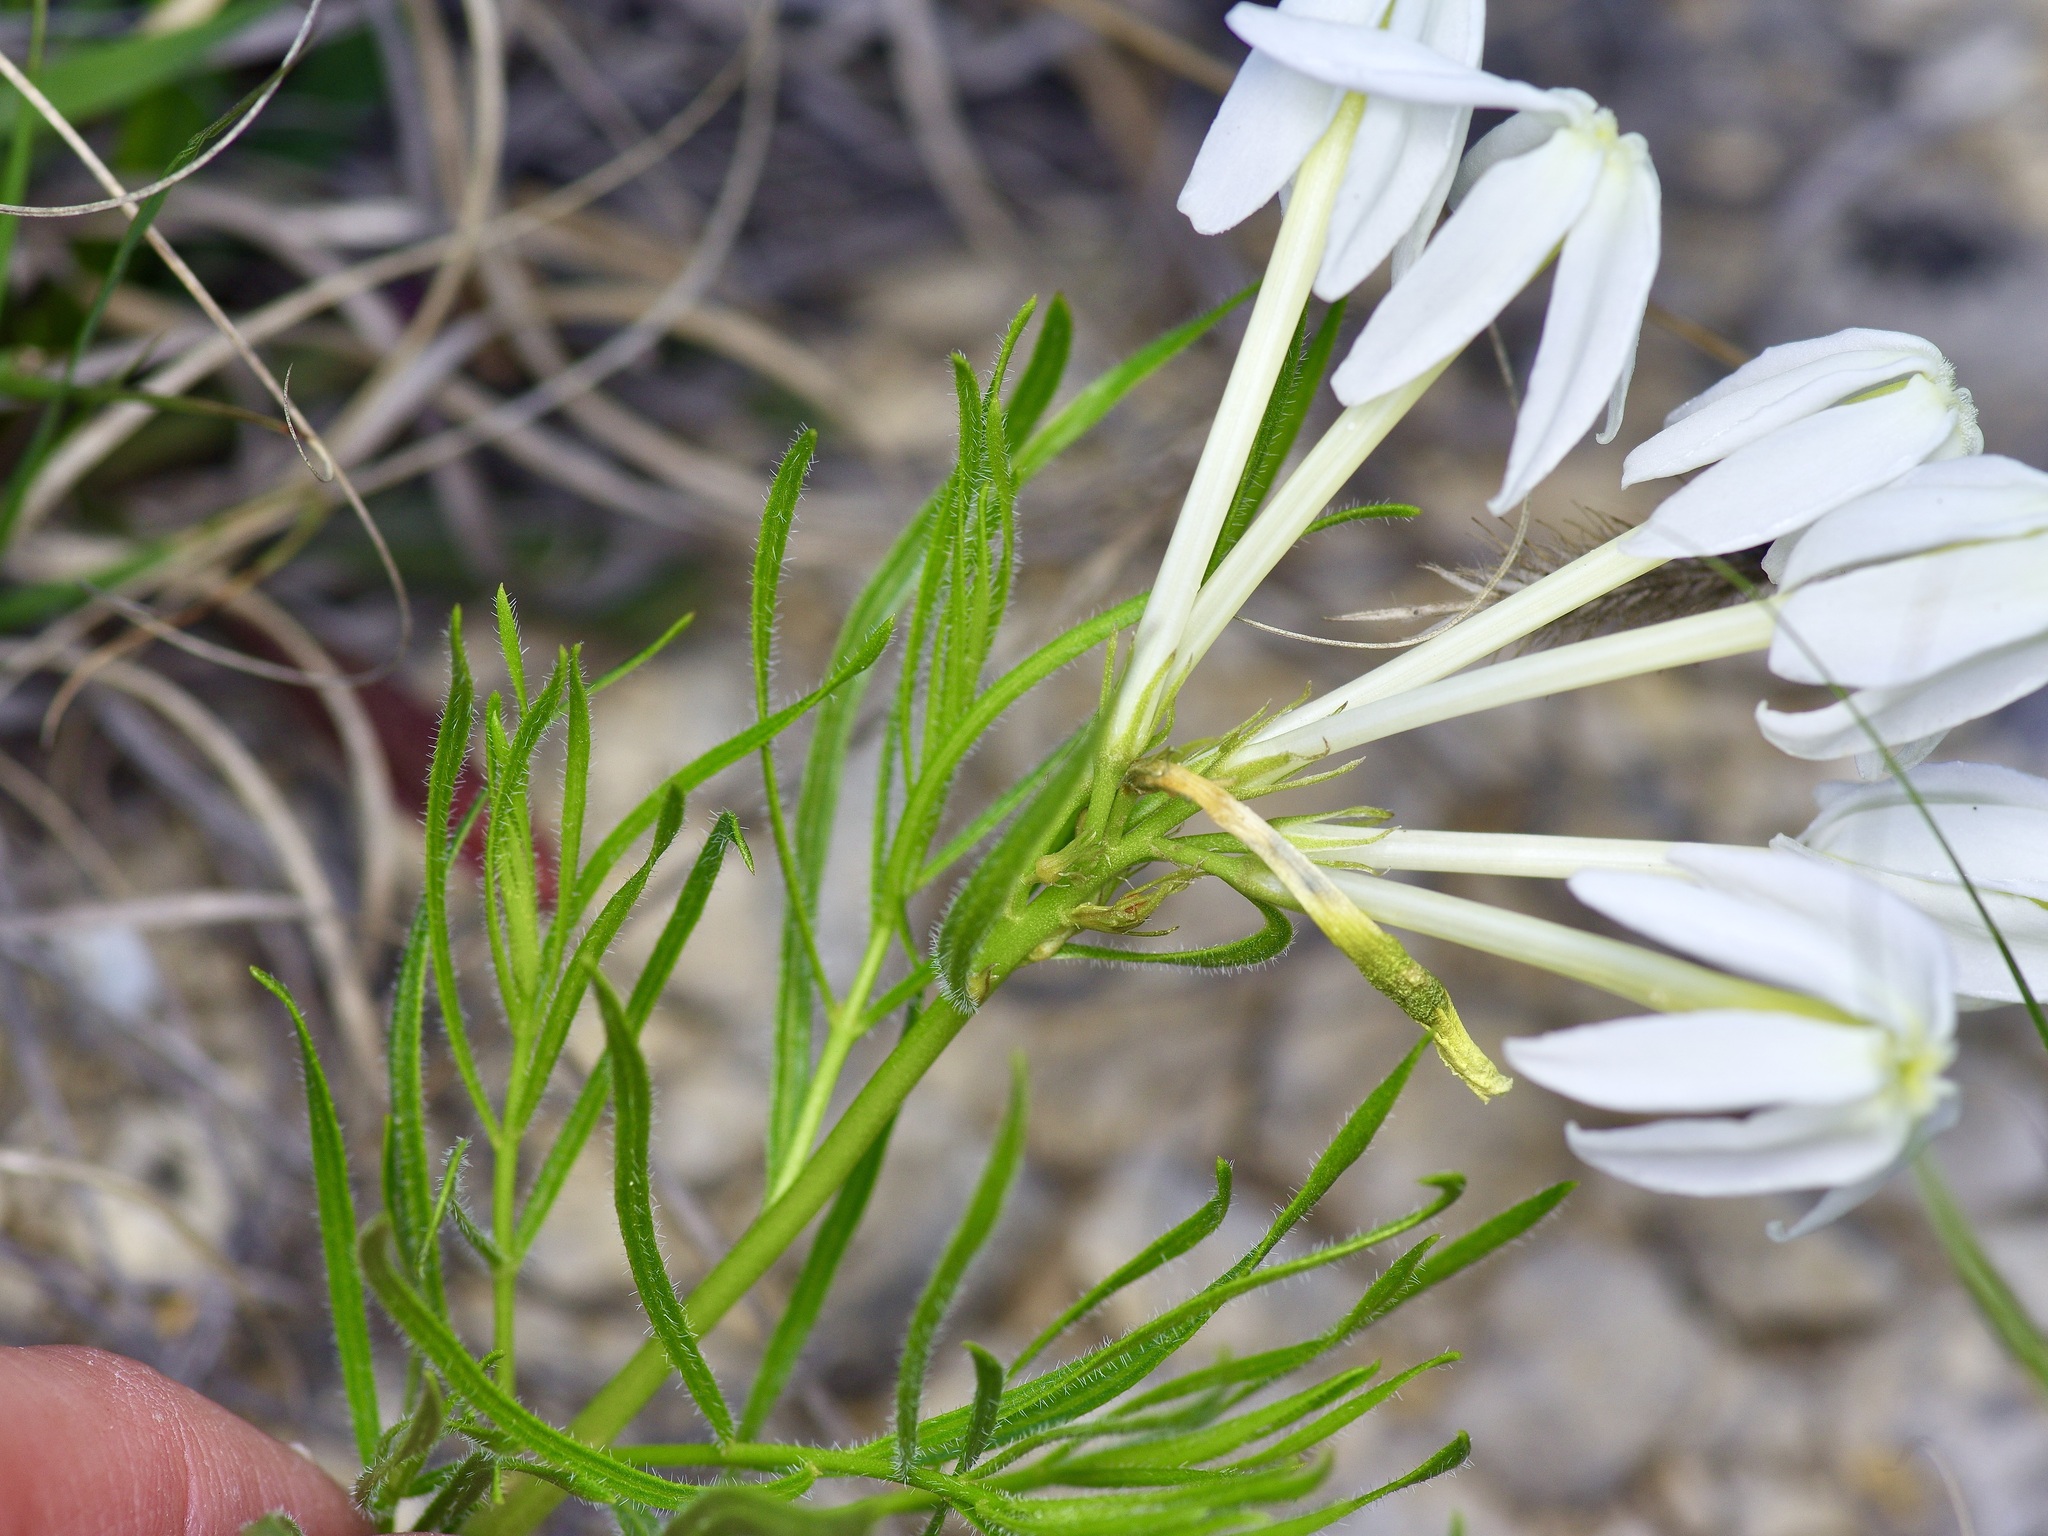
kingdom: Plantae
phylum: Tracheophyta
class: Magnoliopsida
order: Gentianales
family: Apocynaceae
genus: Amsonia
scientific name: Amsonia longiflora
